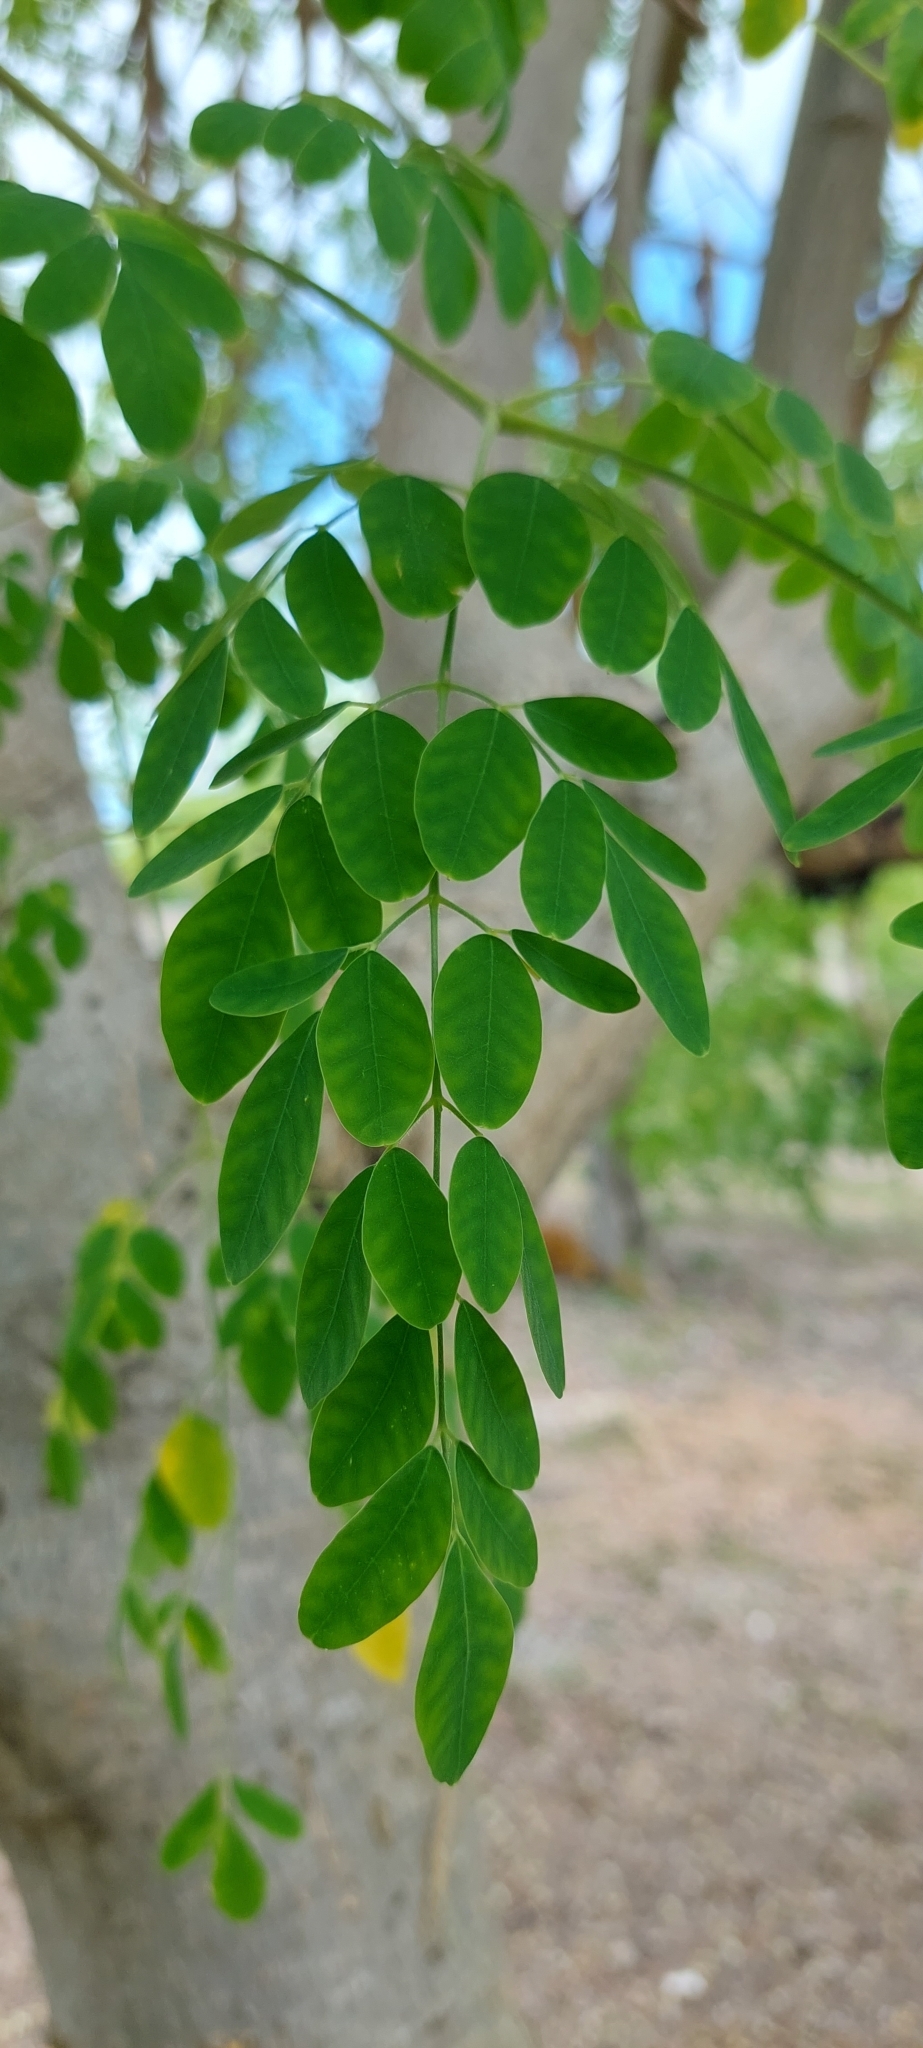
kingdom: Plantae
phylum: Tracheophyta
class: Magnoliopsida
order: Brassicales
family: Moringaceae
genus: Moringa
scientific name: Moringa oleifera
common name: Horseradish-tree
